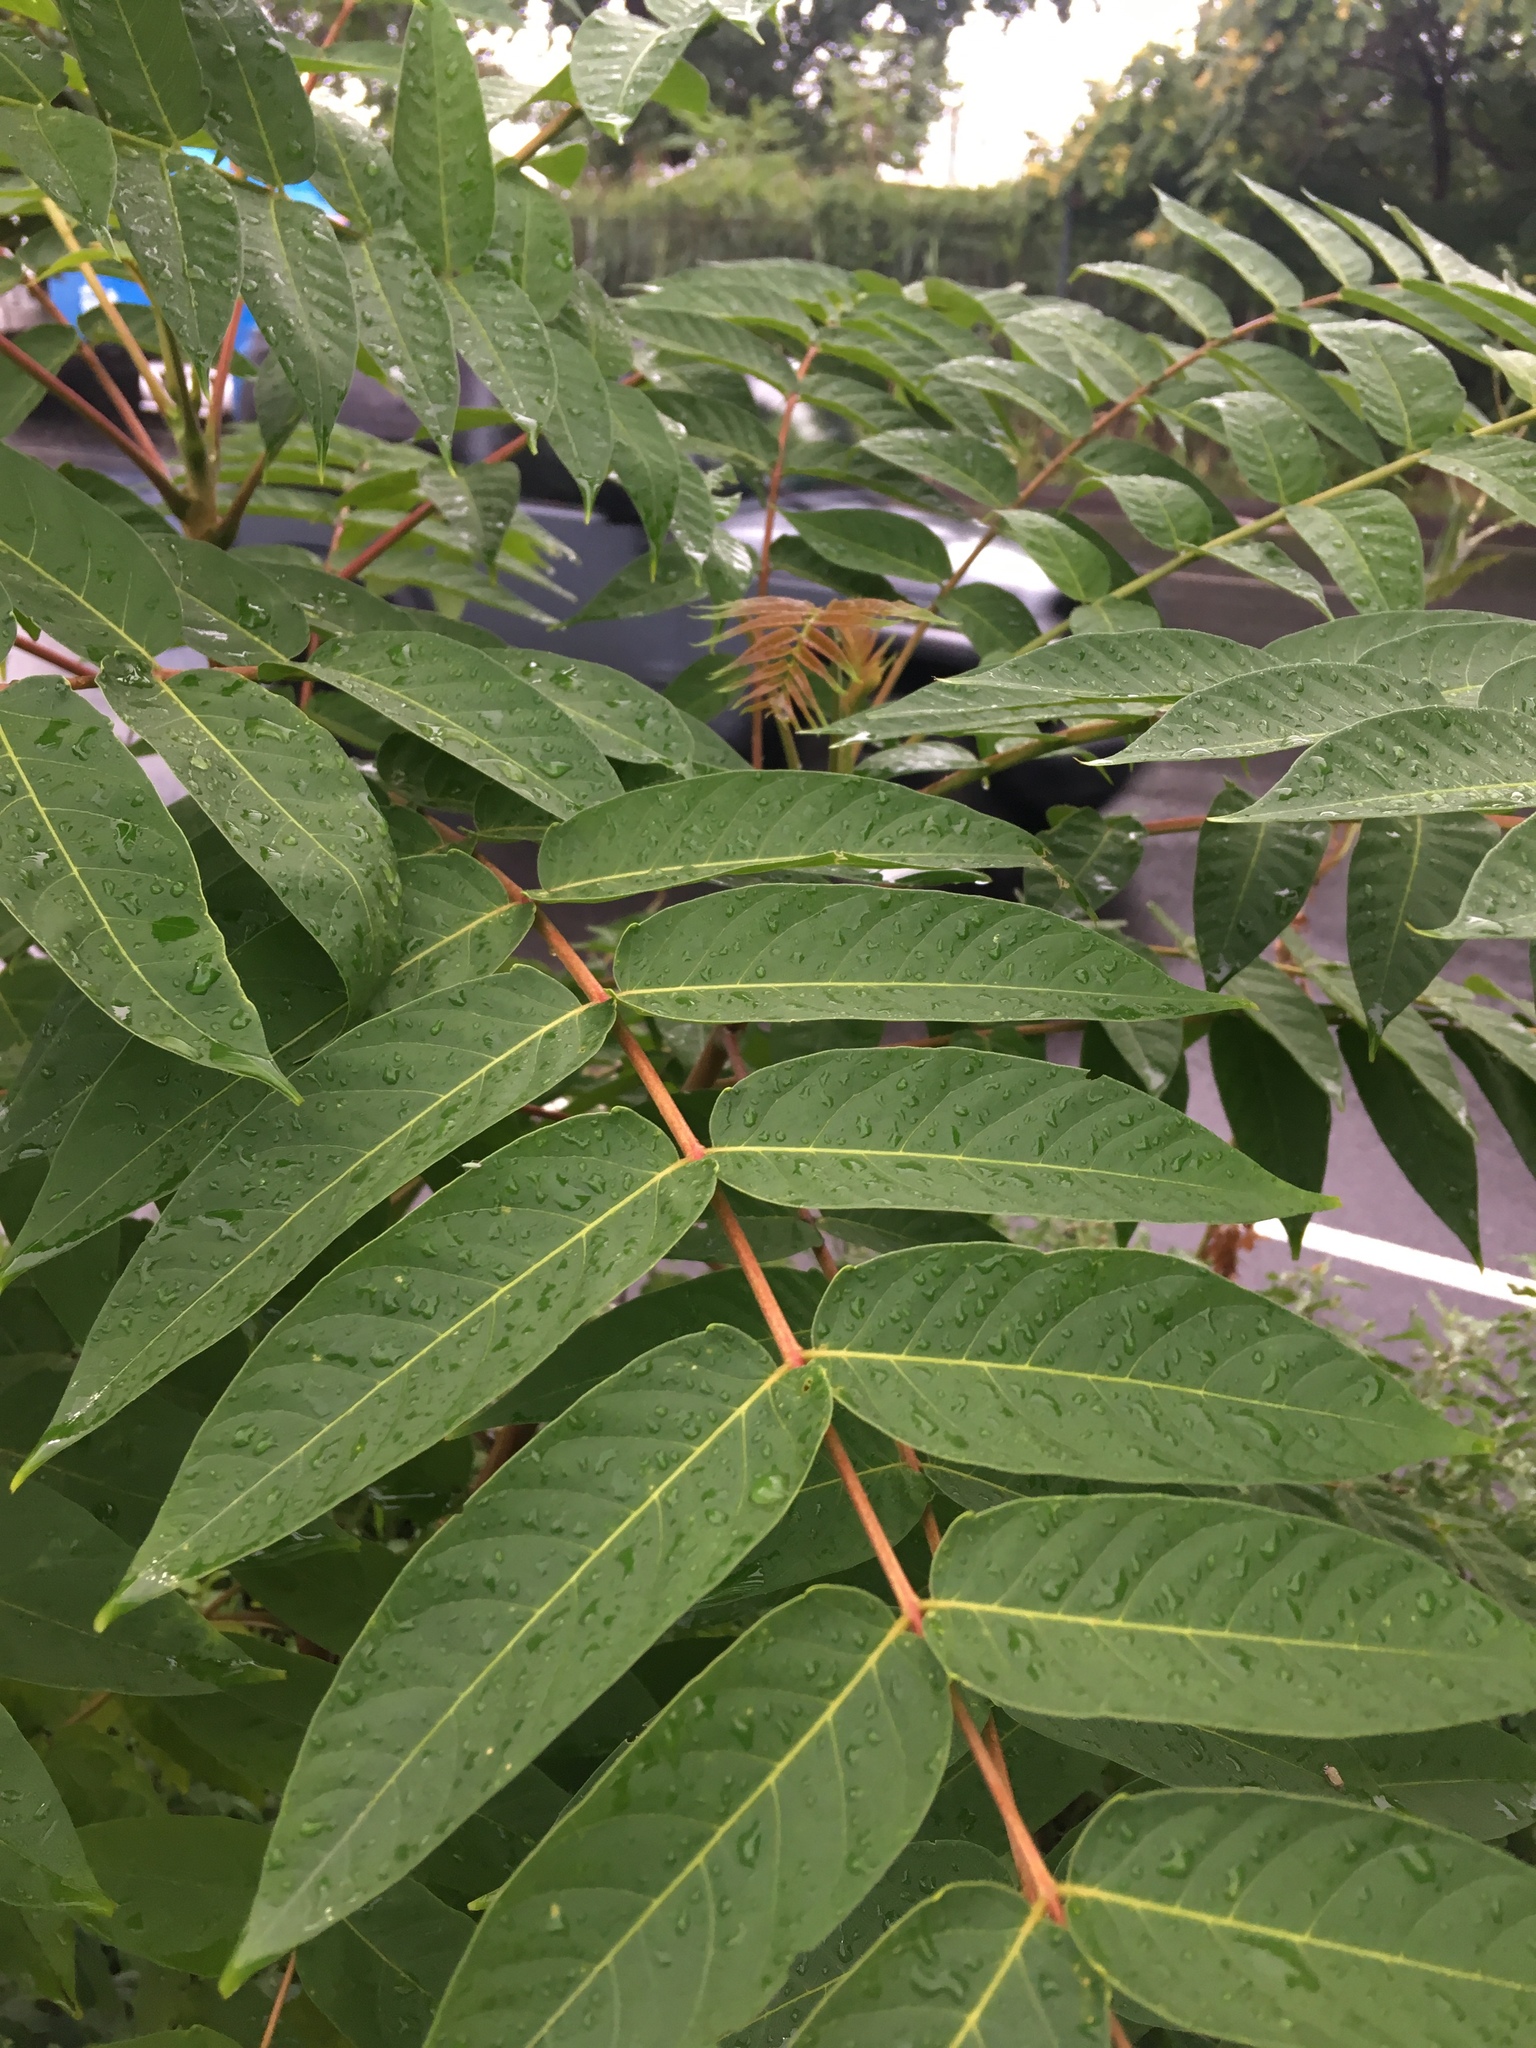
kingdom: Plantae
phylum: Tracheophyta
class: Magnoliopsida
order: Sapindales
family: Simaroubaceae
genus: Ailanthus
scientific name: Ailanthus altissima
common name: Tree-of-heaven
